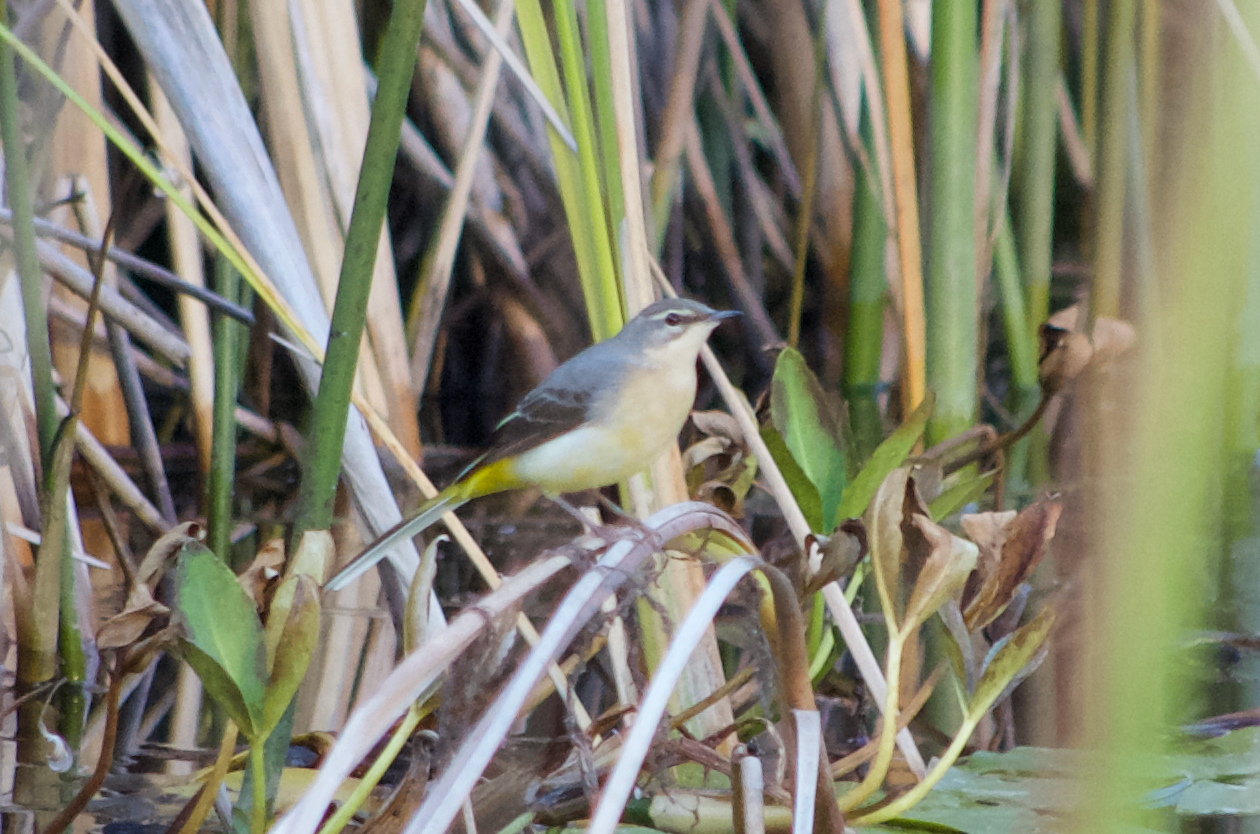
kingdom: Animalia
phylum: Chordata
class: Aves
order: Passeriformes
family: Motacillidae
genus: Motacilla
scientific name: Motacilla cinerea
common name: Grey wagtail
